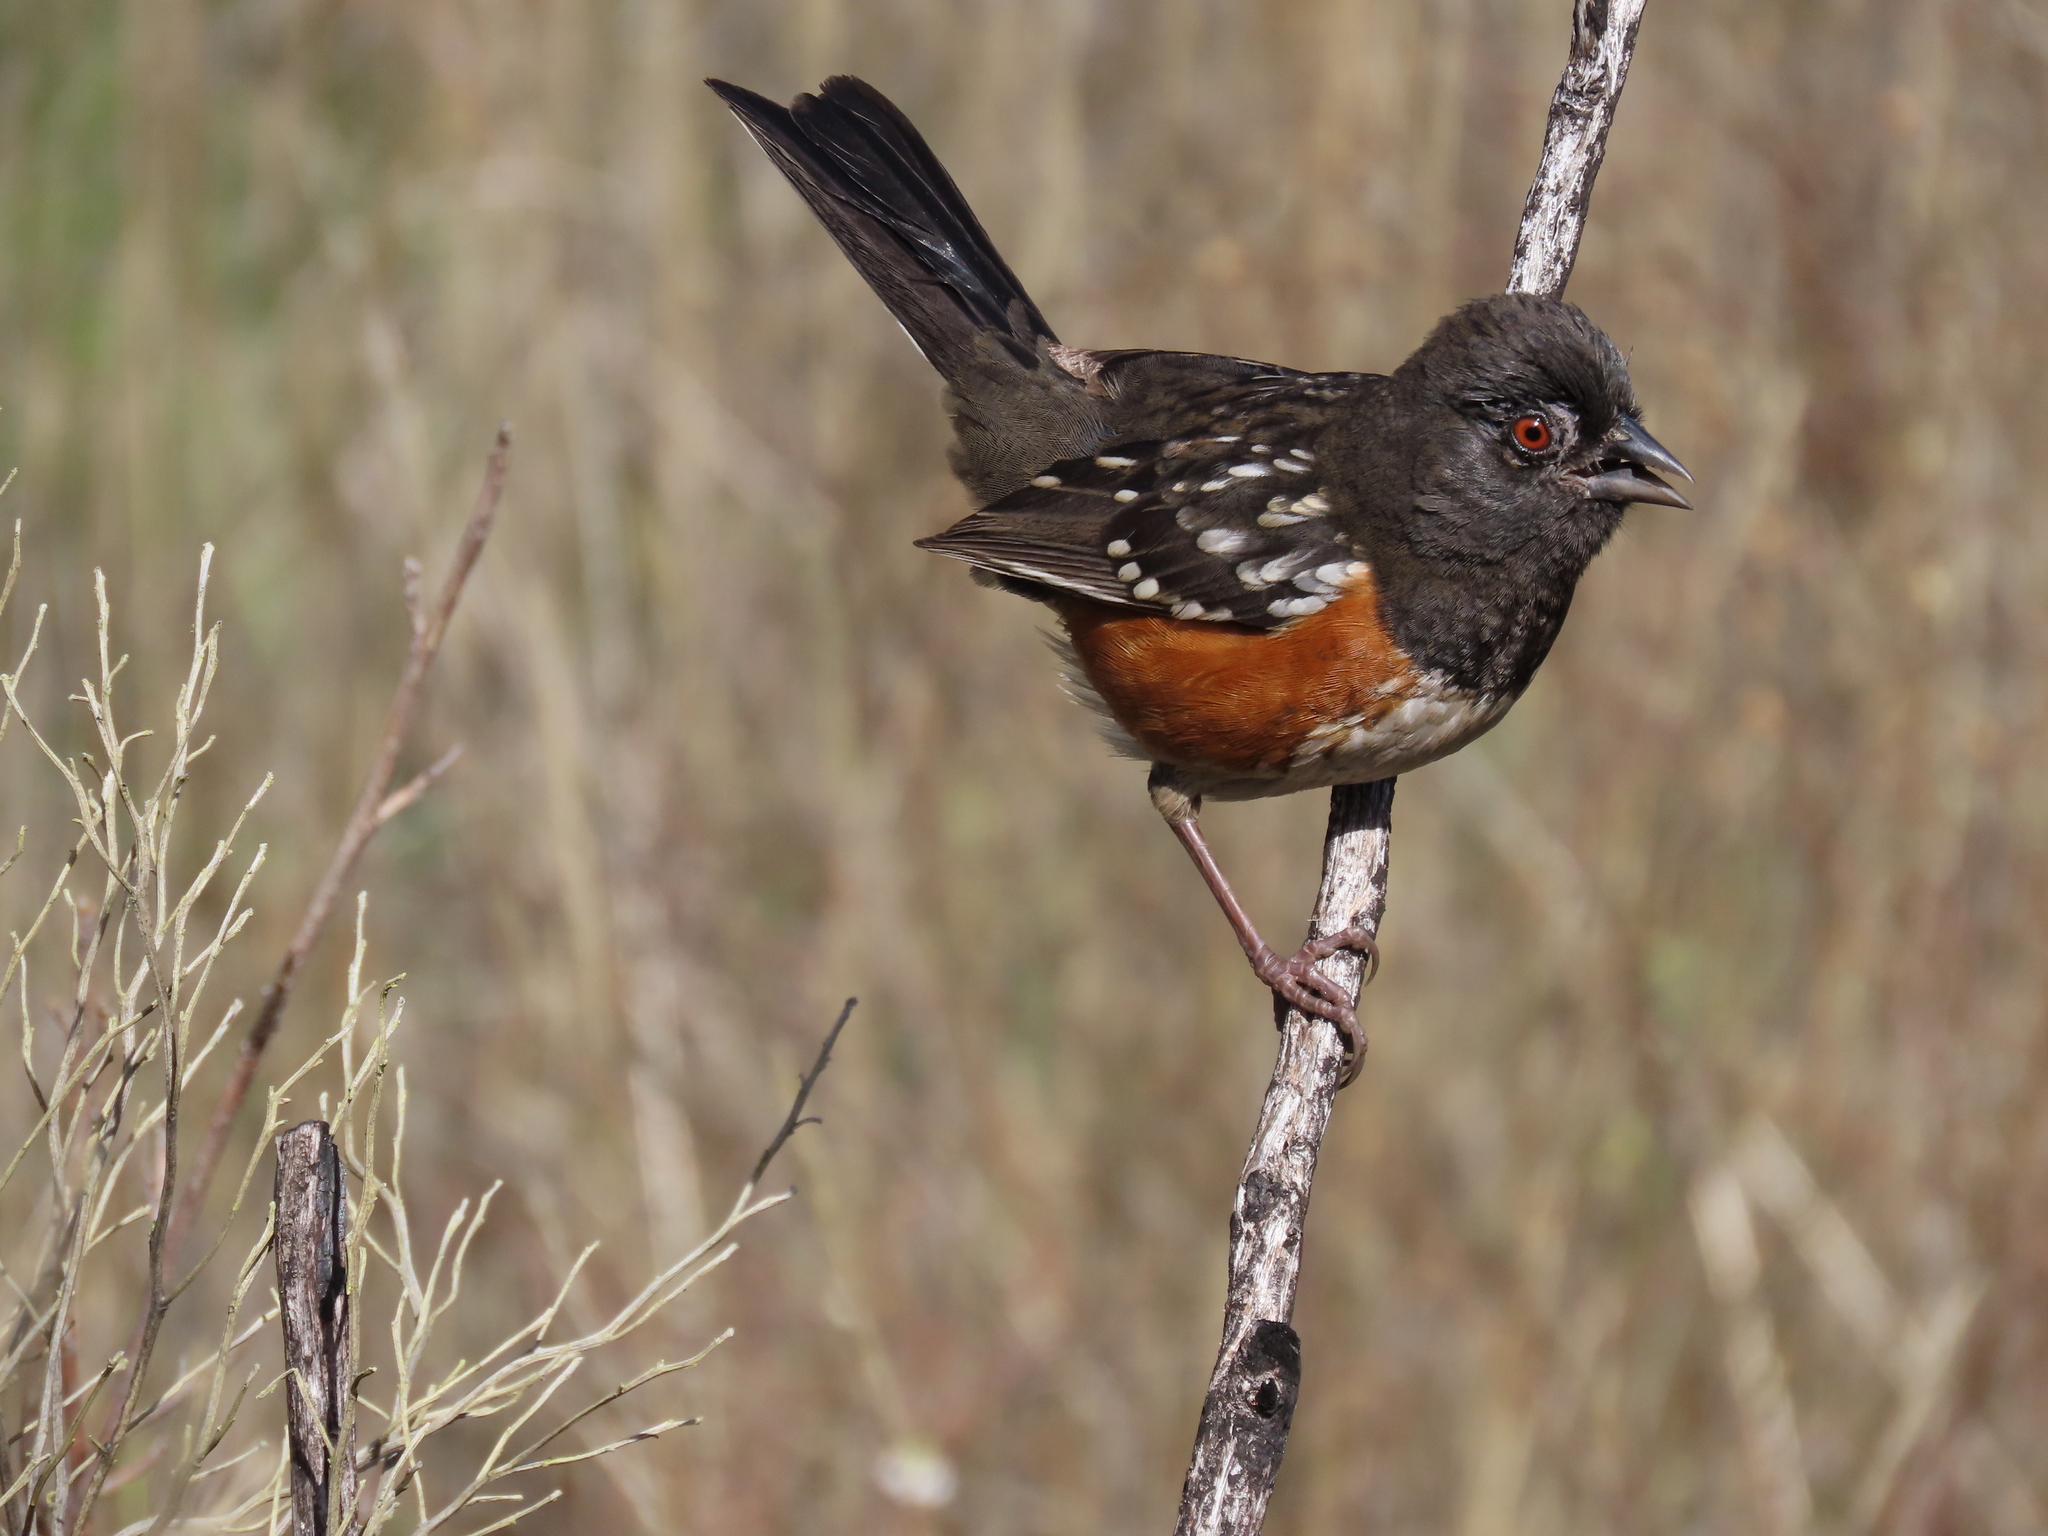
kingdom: Animalia
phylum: Chordata
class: Aves
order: Passeriformes
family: Passerellidae
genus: Pipilo
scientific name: Pipilo maculatus
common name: Spotted towhee
